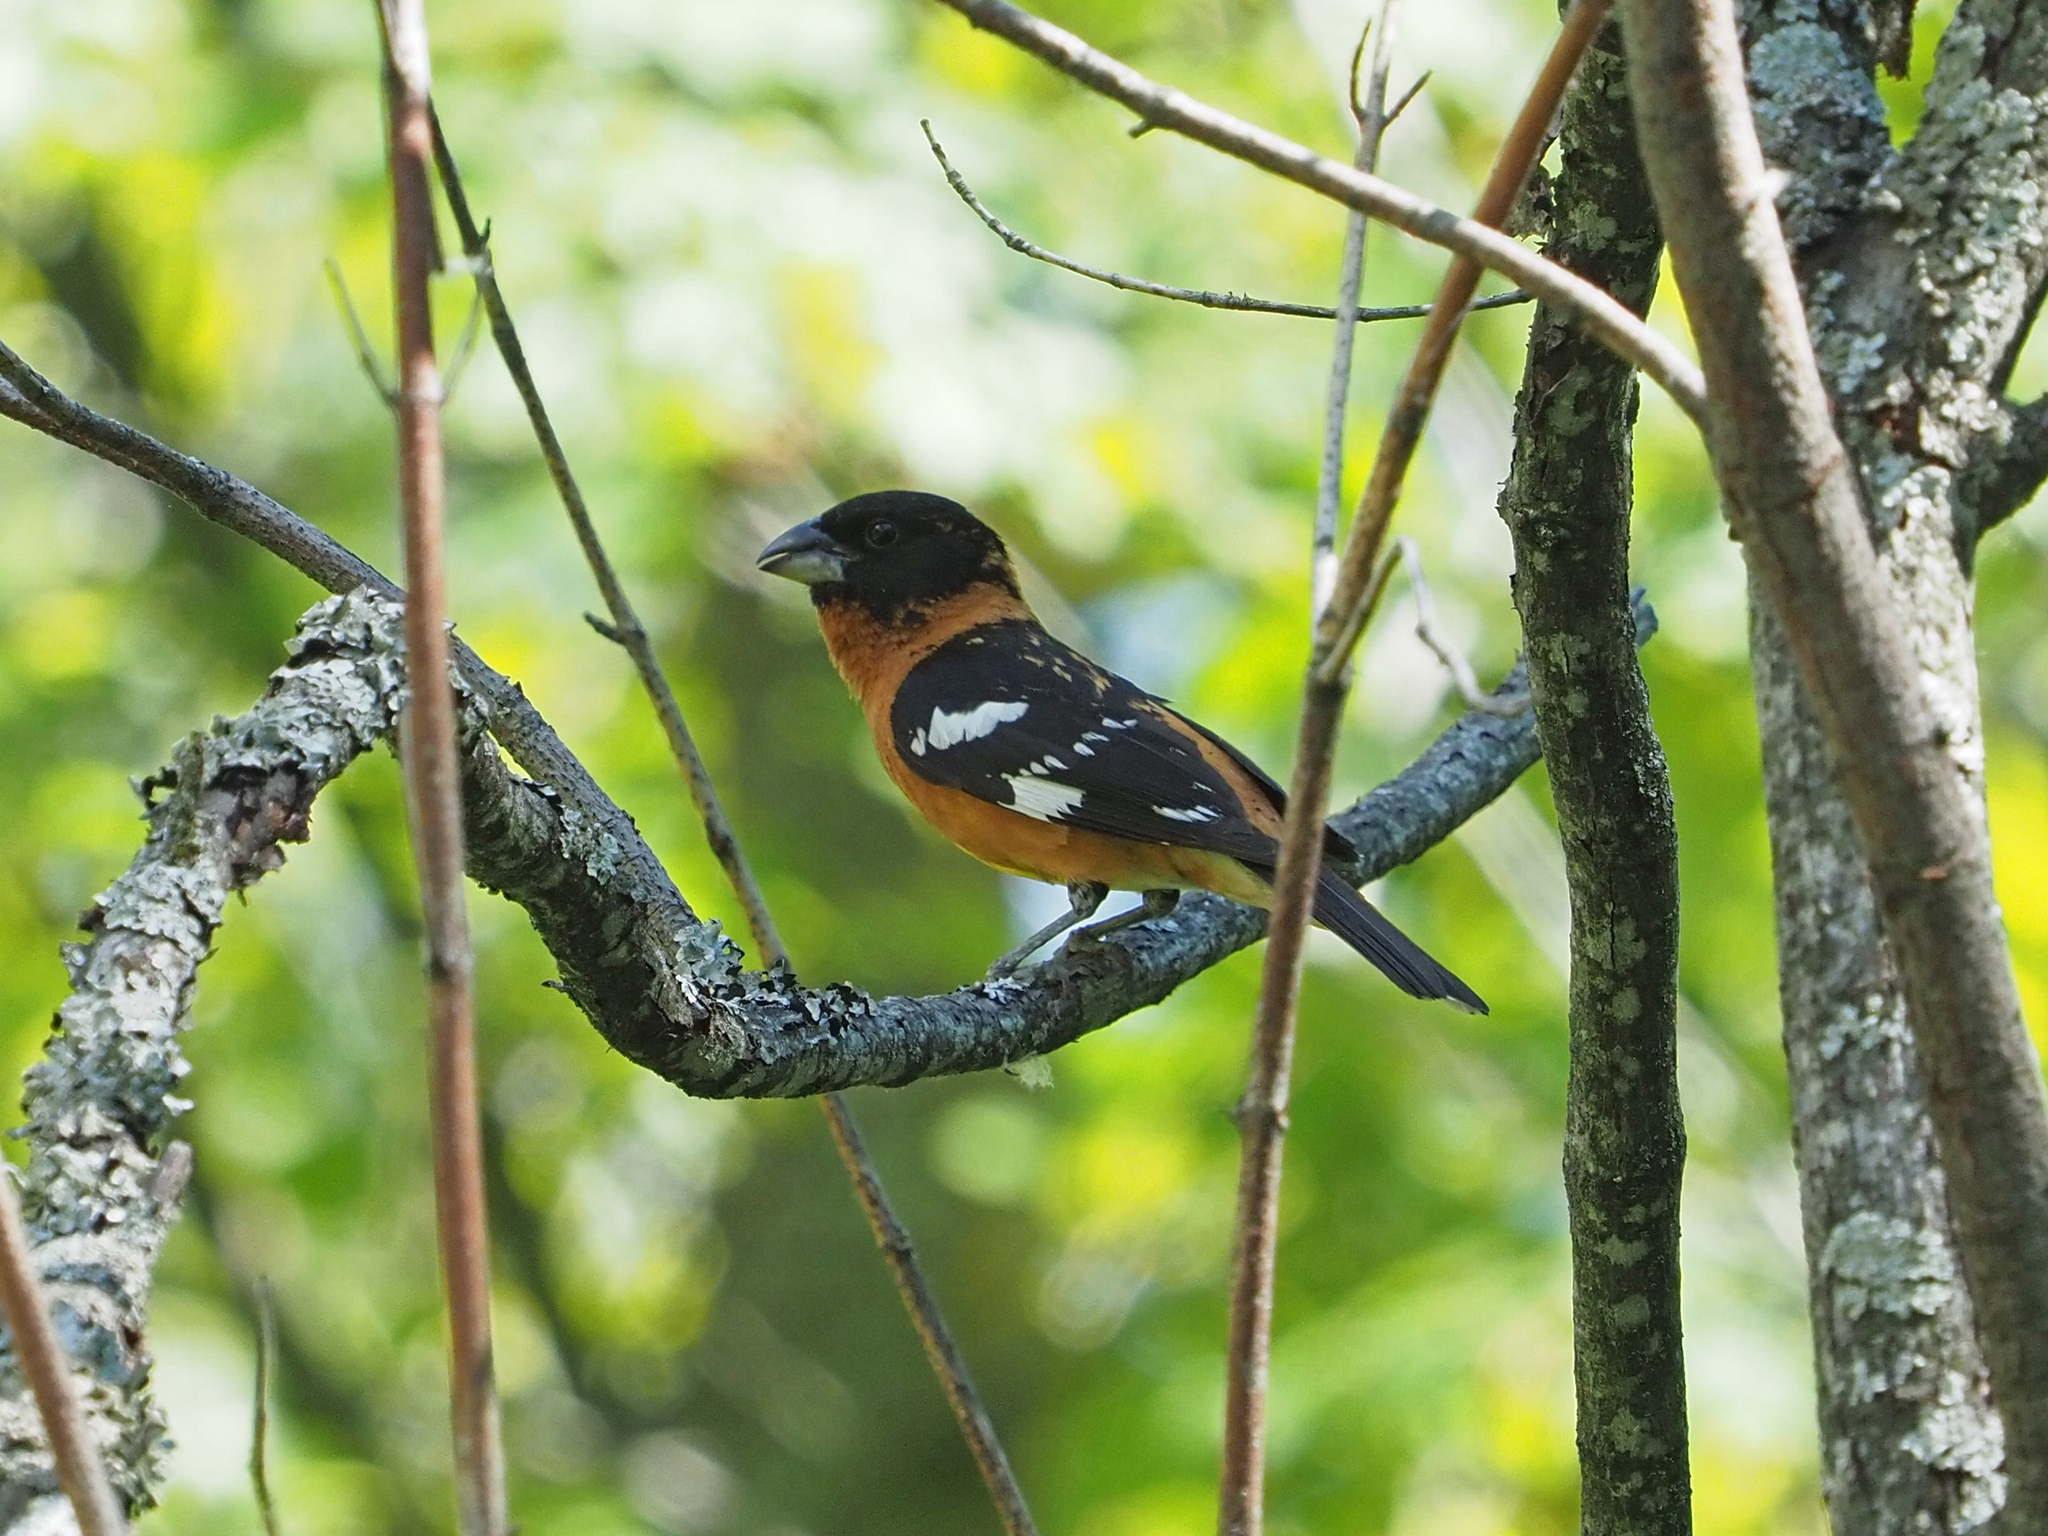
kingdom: Animalia
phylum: Chordata
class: Aves
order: Passeriformes
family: Cardinalidae
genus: Pheucticus
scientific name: Pheucticus melanocephalus
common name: Black-headed grosbeak
